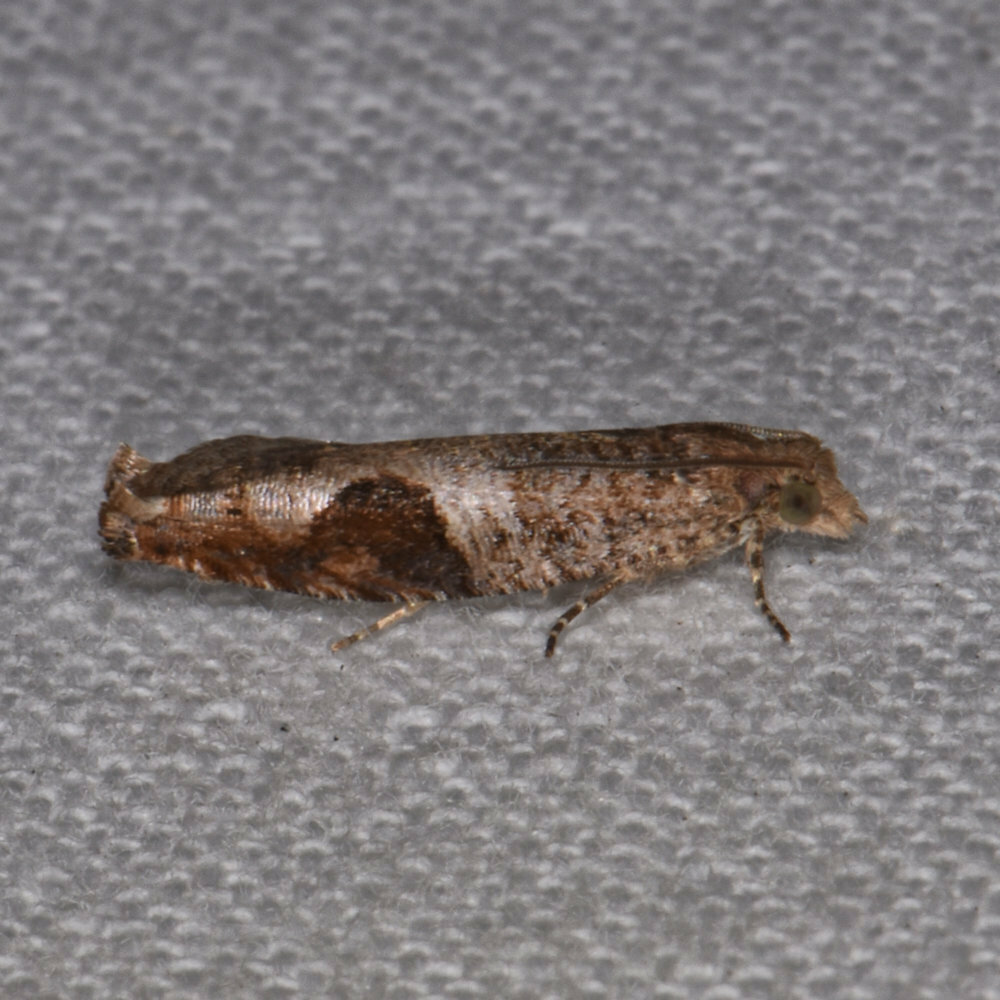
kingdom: Animalia
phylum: Arthropoda
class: Insecta
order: Lepidoptera
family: Tortricidae
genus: Pseudexentera
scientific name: Pseudexentera virginiana
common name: Virginia pseudexentera moth
